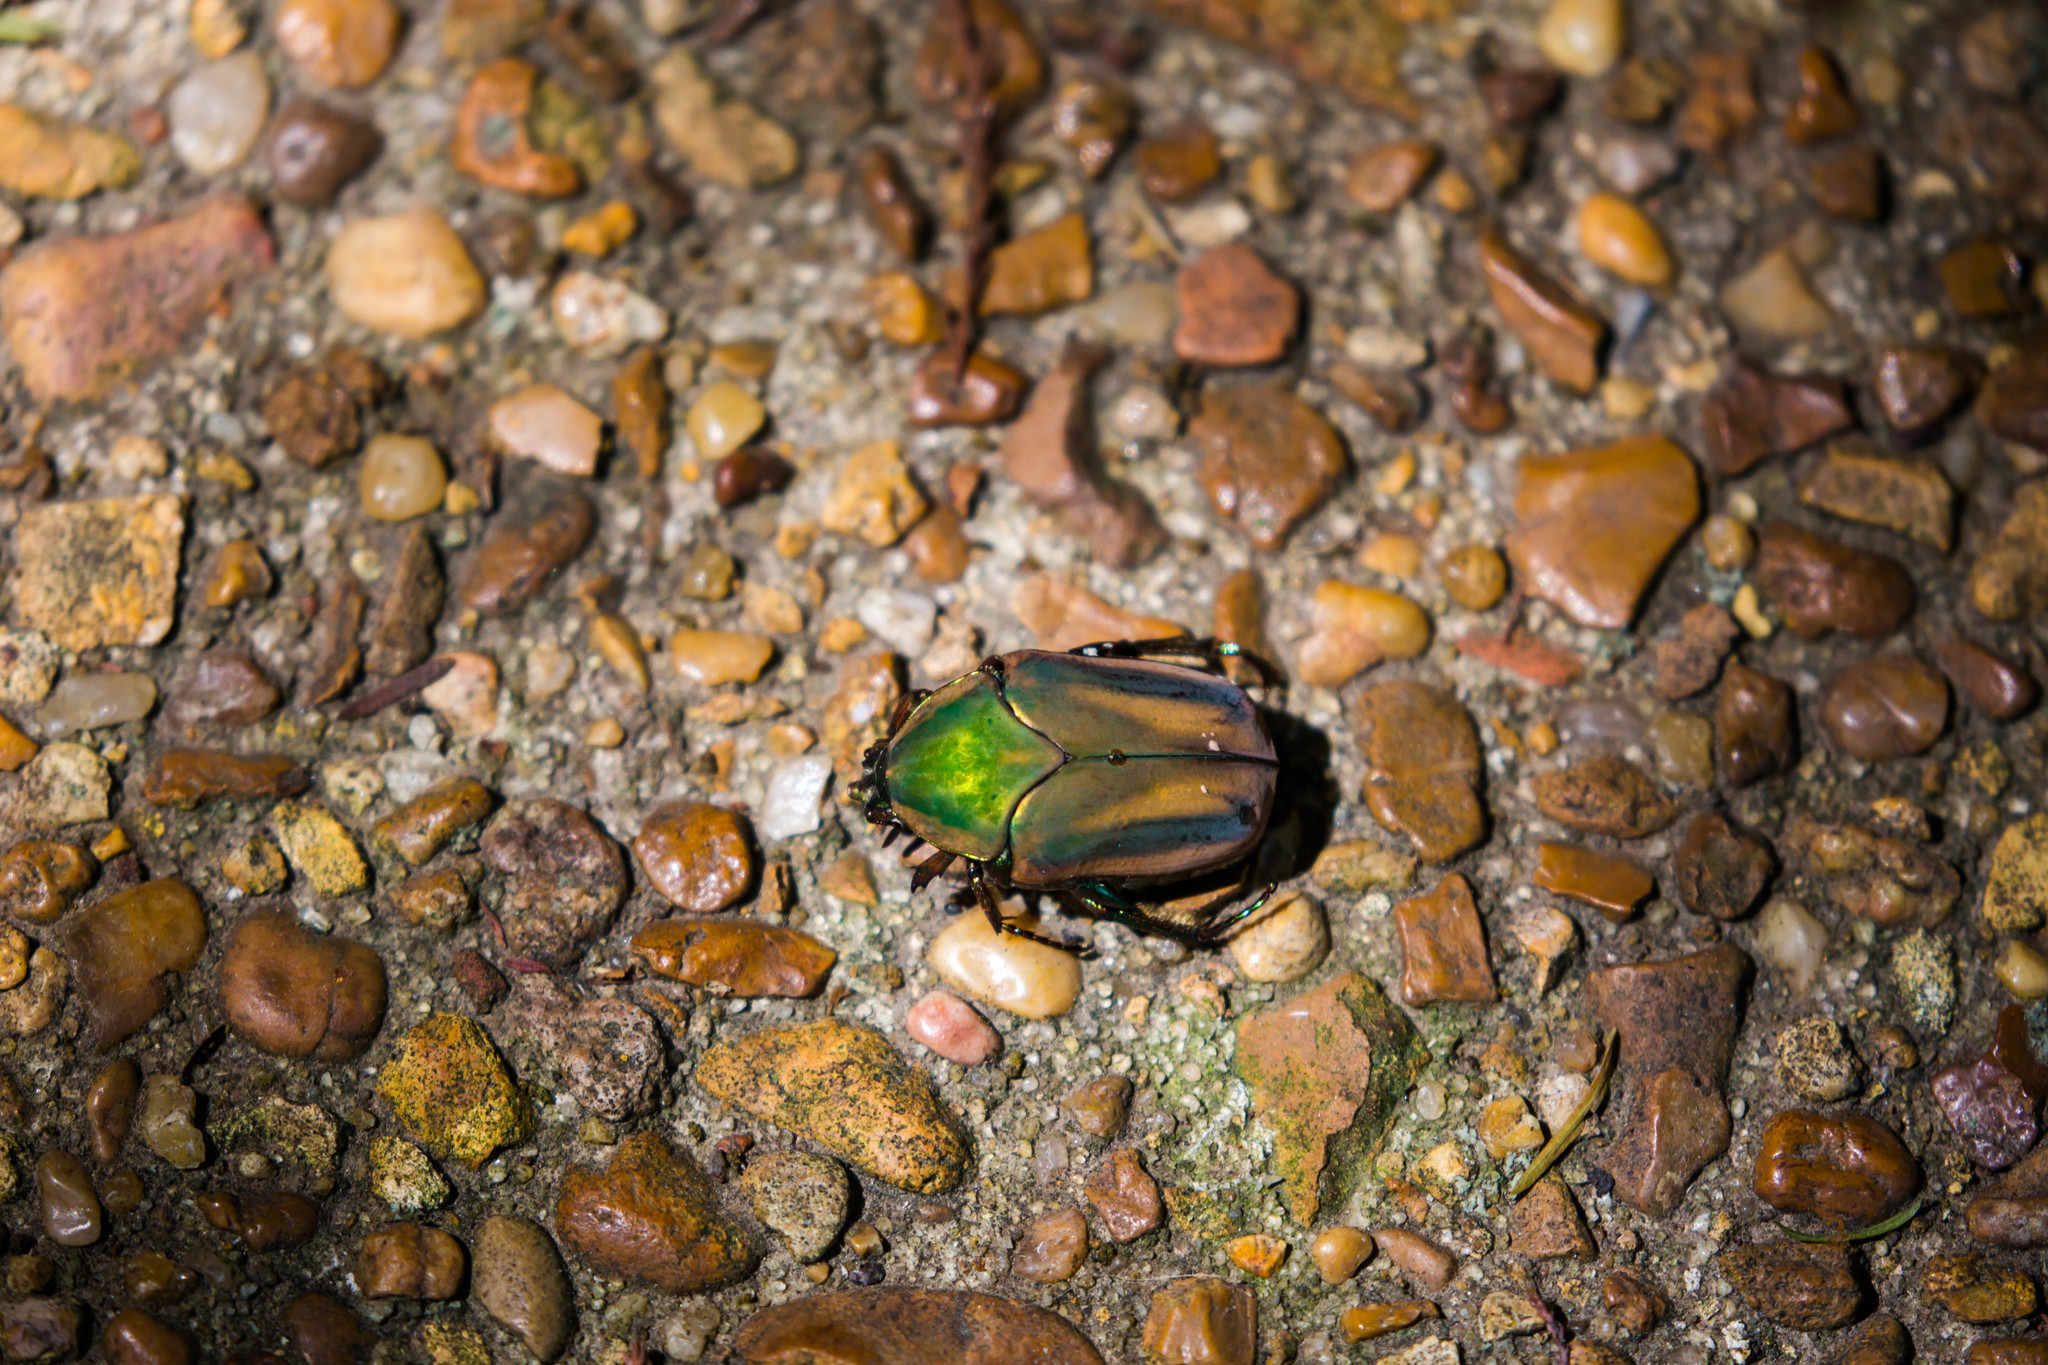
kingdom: Animalia
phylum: Arthropoda
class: Insecta
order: Coleoptera
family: Scarabaeidae
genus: Cotinis
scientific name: Cotinis nitida
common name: Common green june beetle
